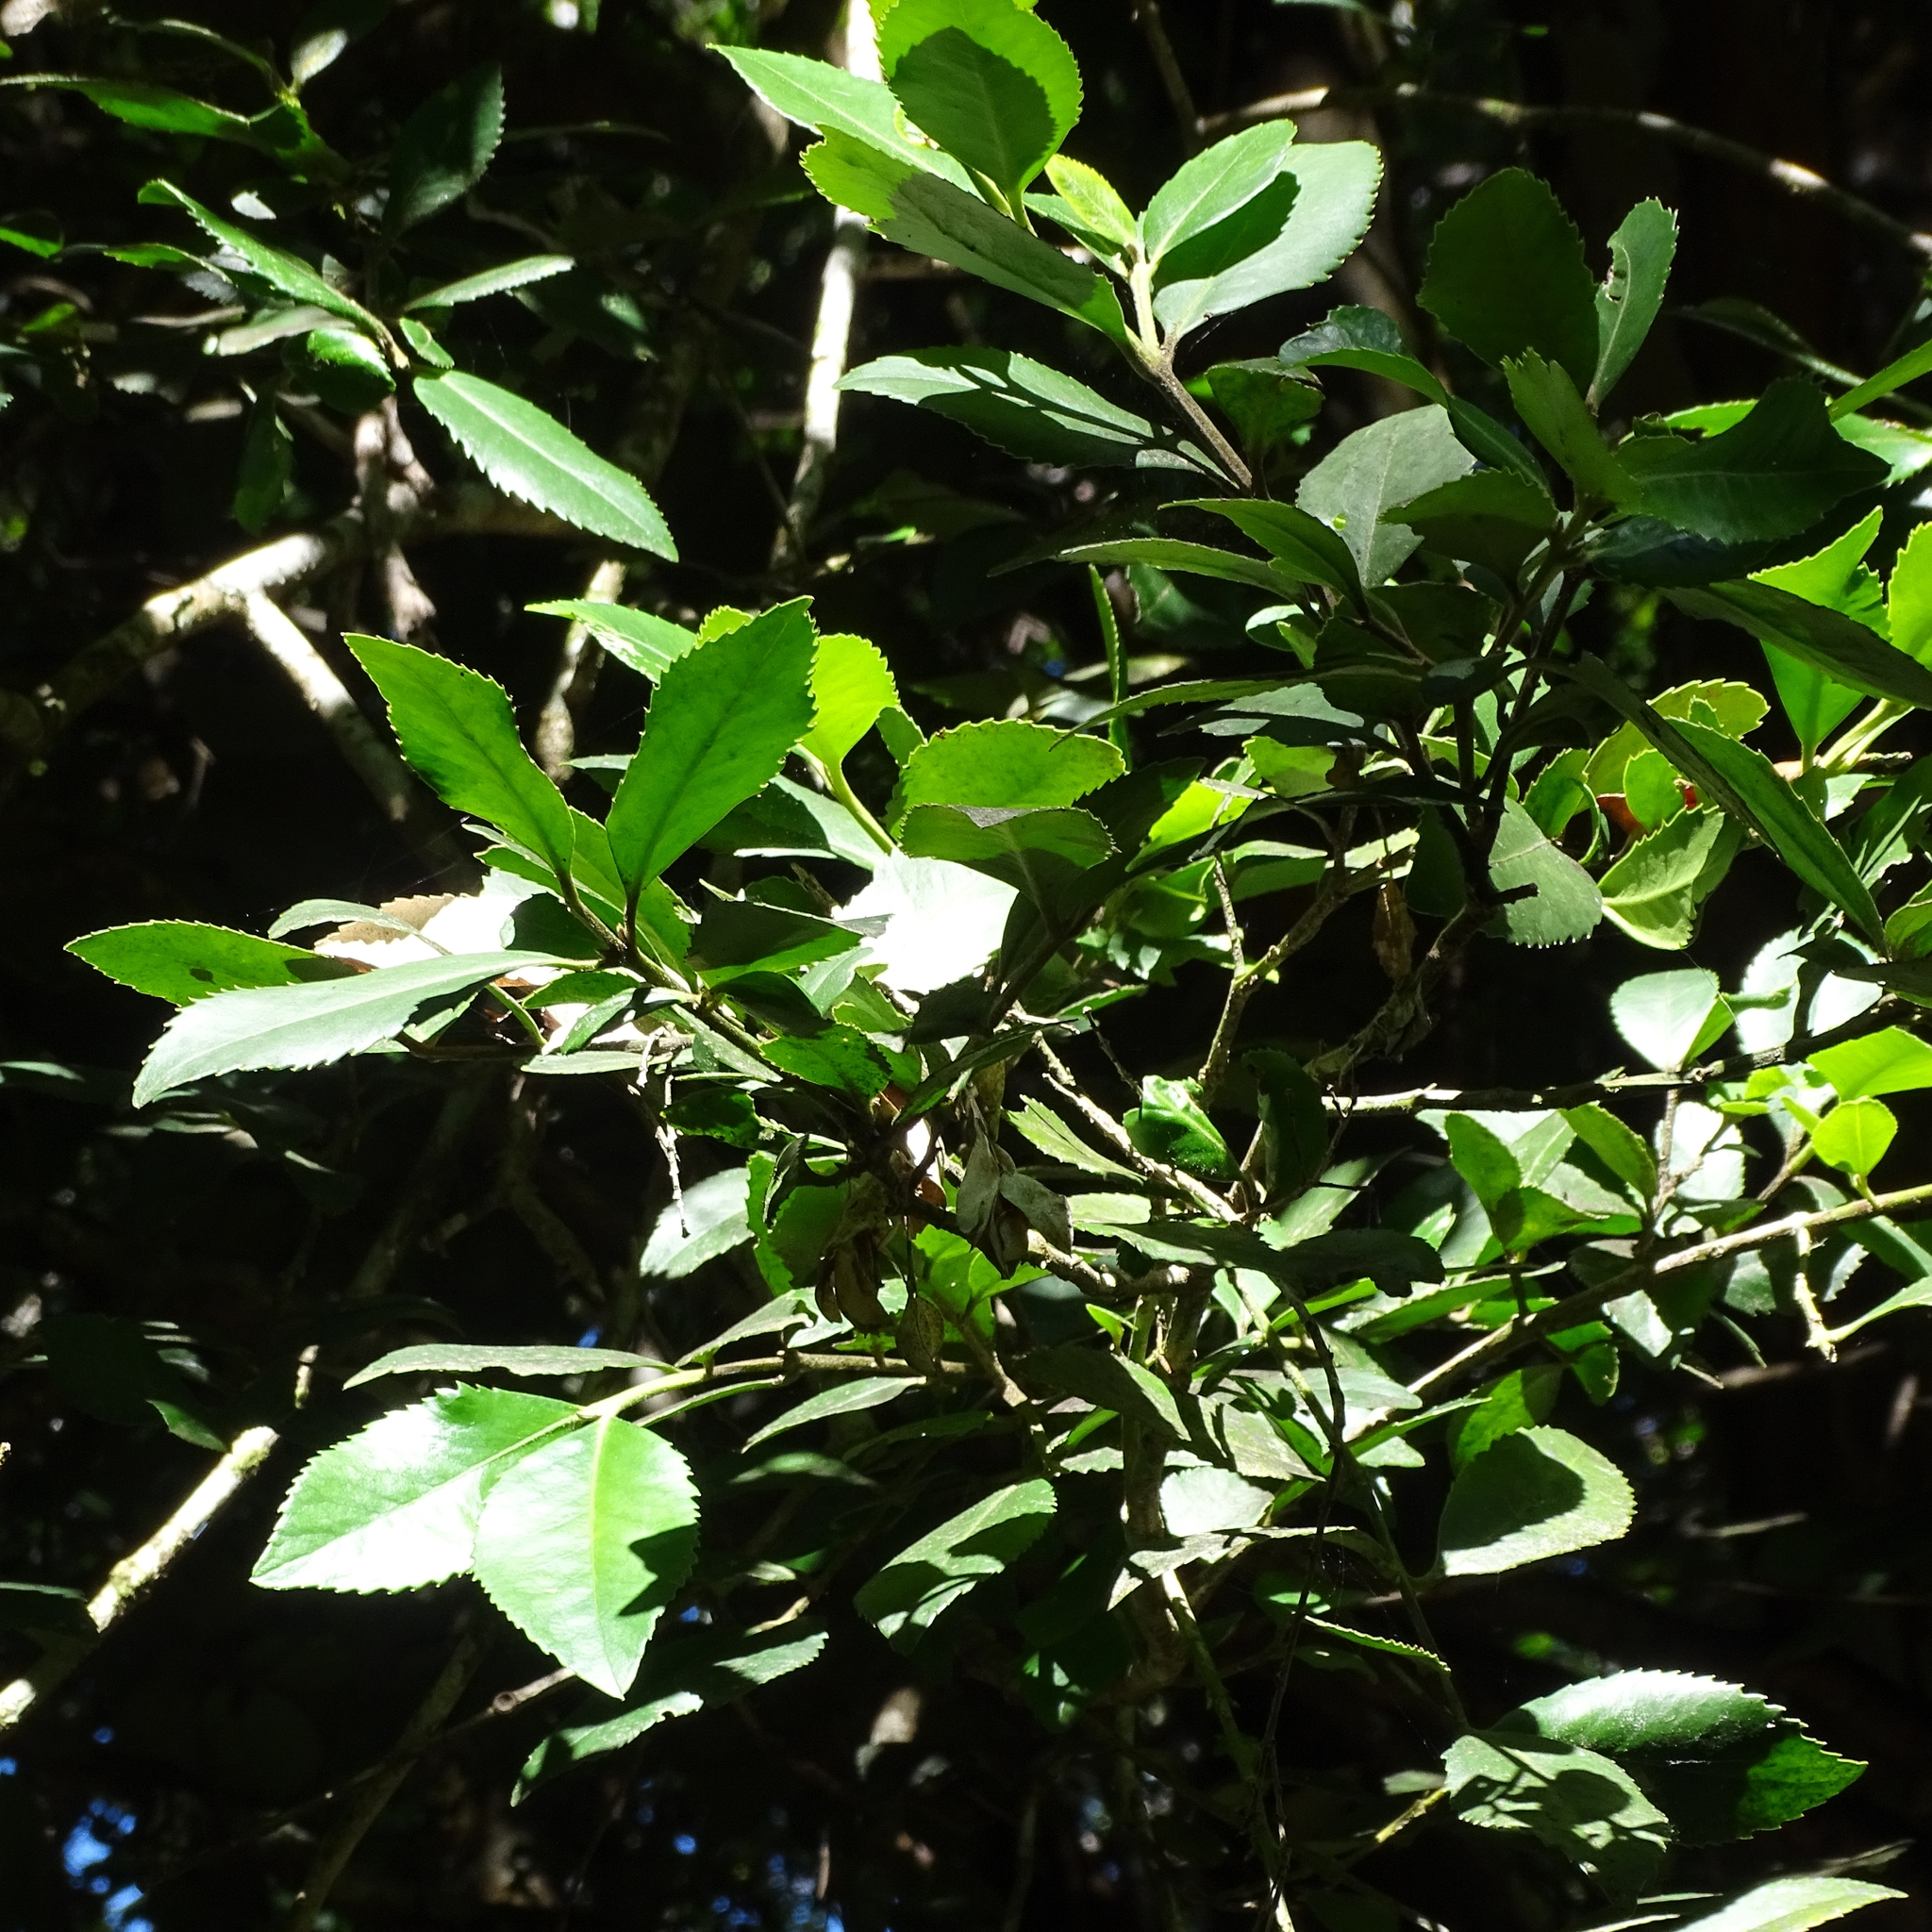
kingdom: Plantae
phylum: Tracheophyta
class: Magnoliopsida
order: Laurales
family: Atherospermataceae
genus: Laureliopsis
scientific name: Laureliopsis philippiana
